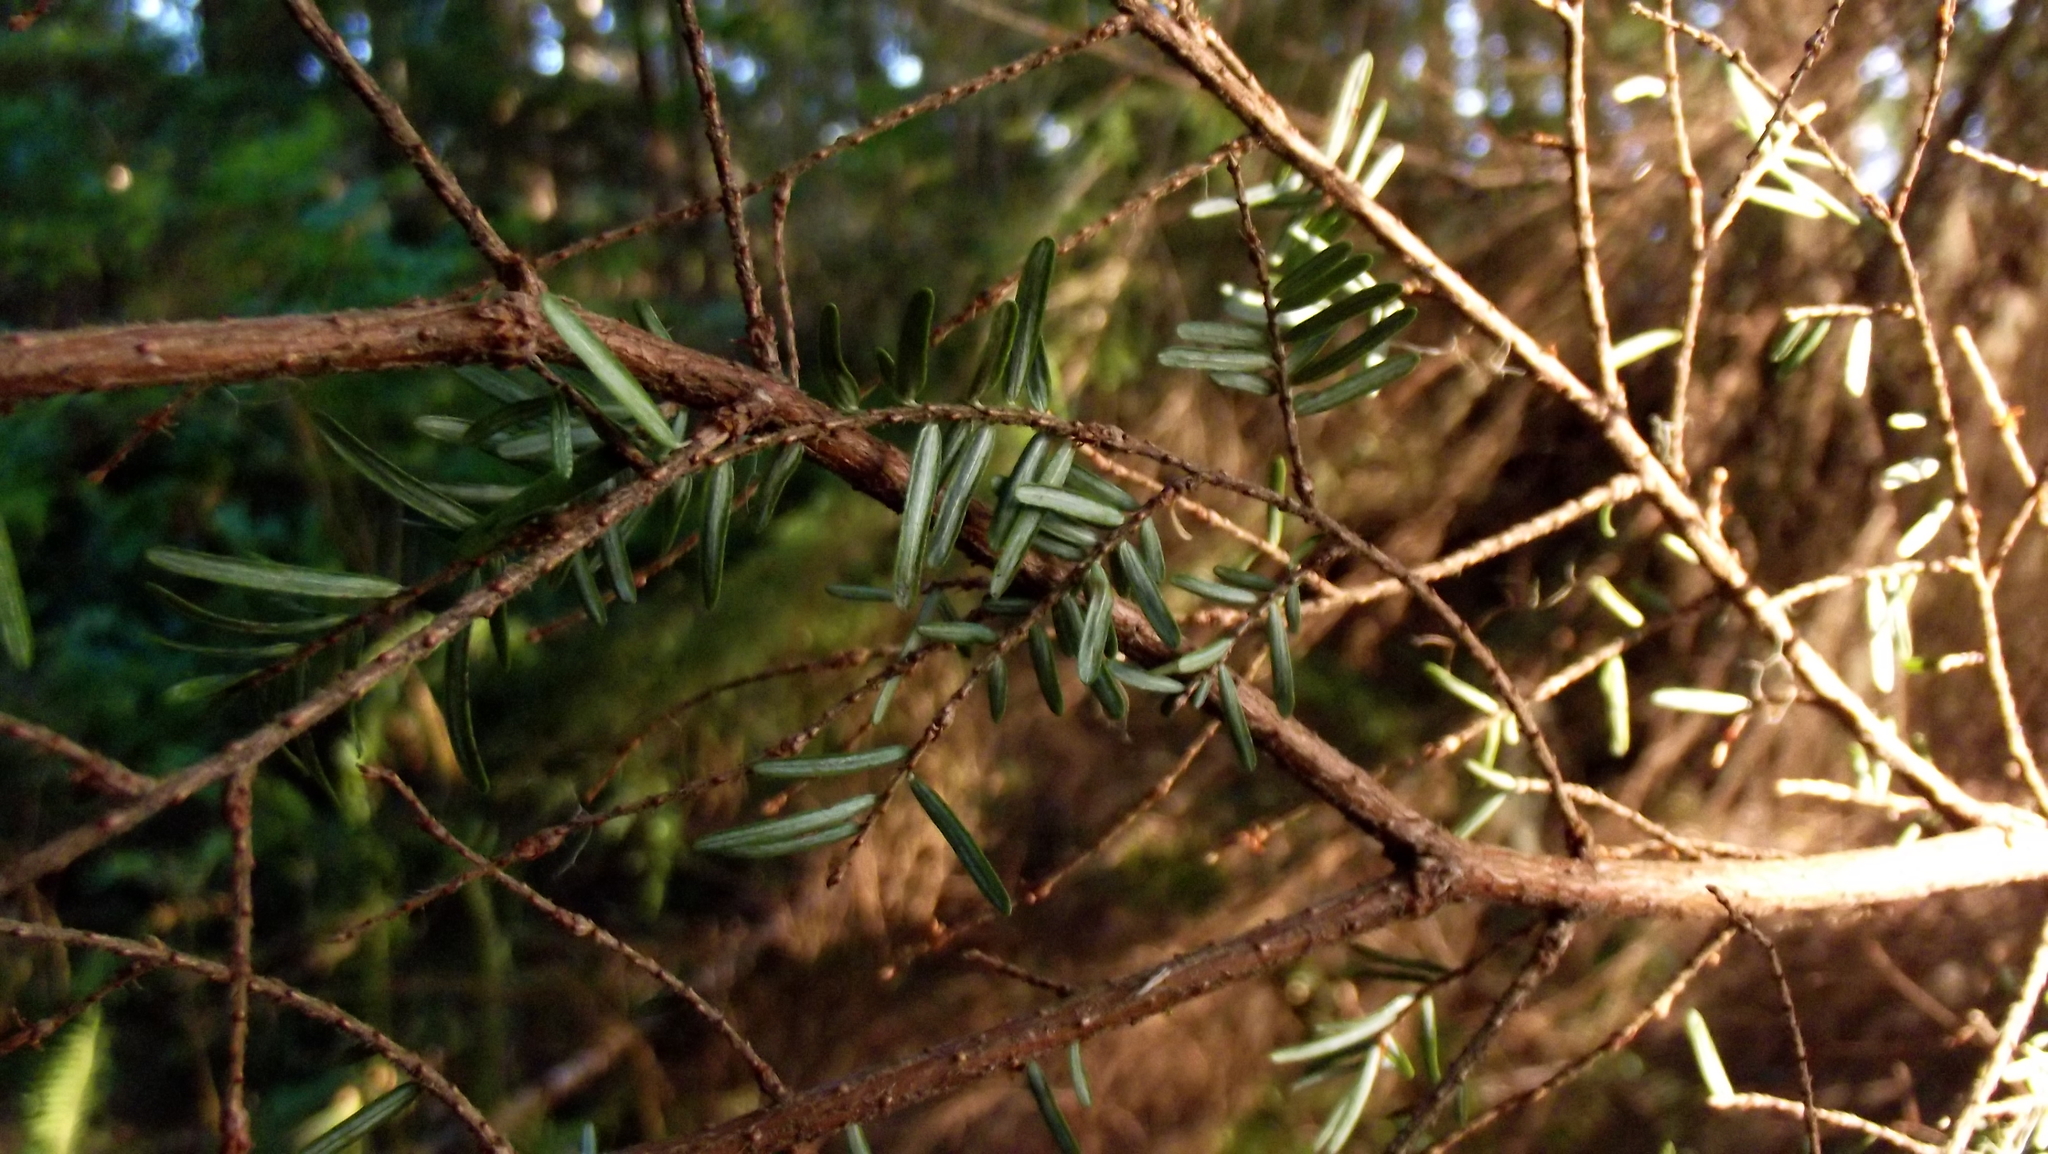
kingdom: Plantae
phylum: Tracheophyta
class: Pinopsida
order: Pinales
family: Pinaceae
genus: Tsuga
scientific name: Tsuga heterophylla
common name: Western hemlock
